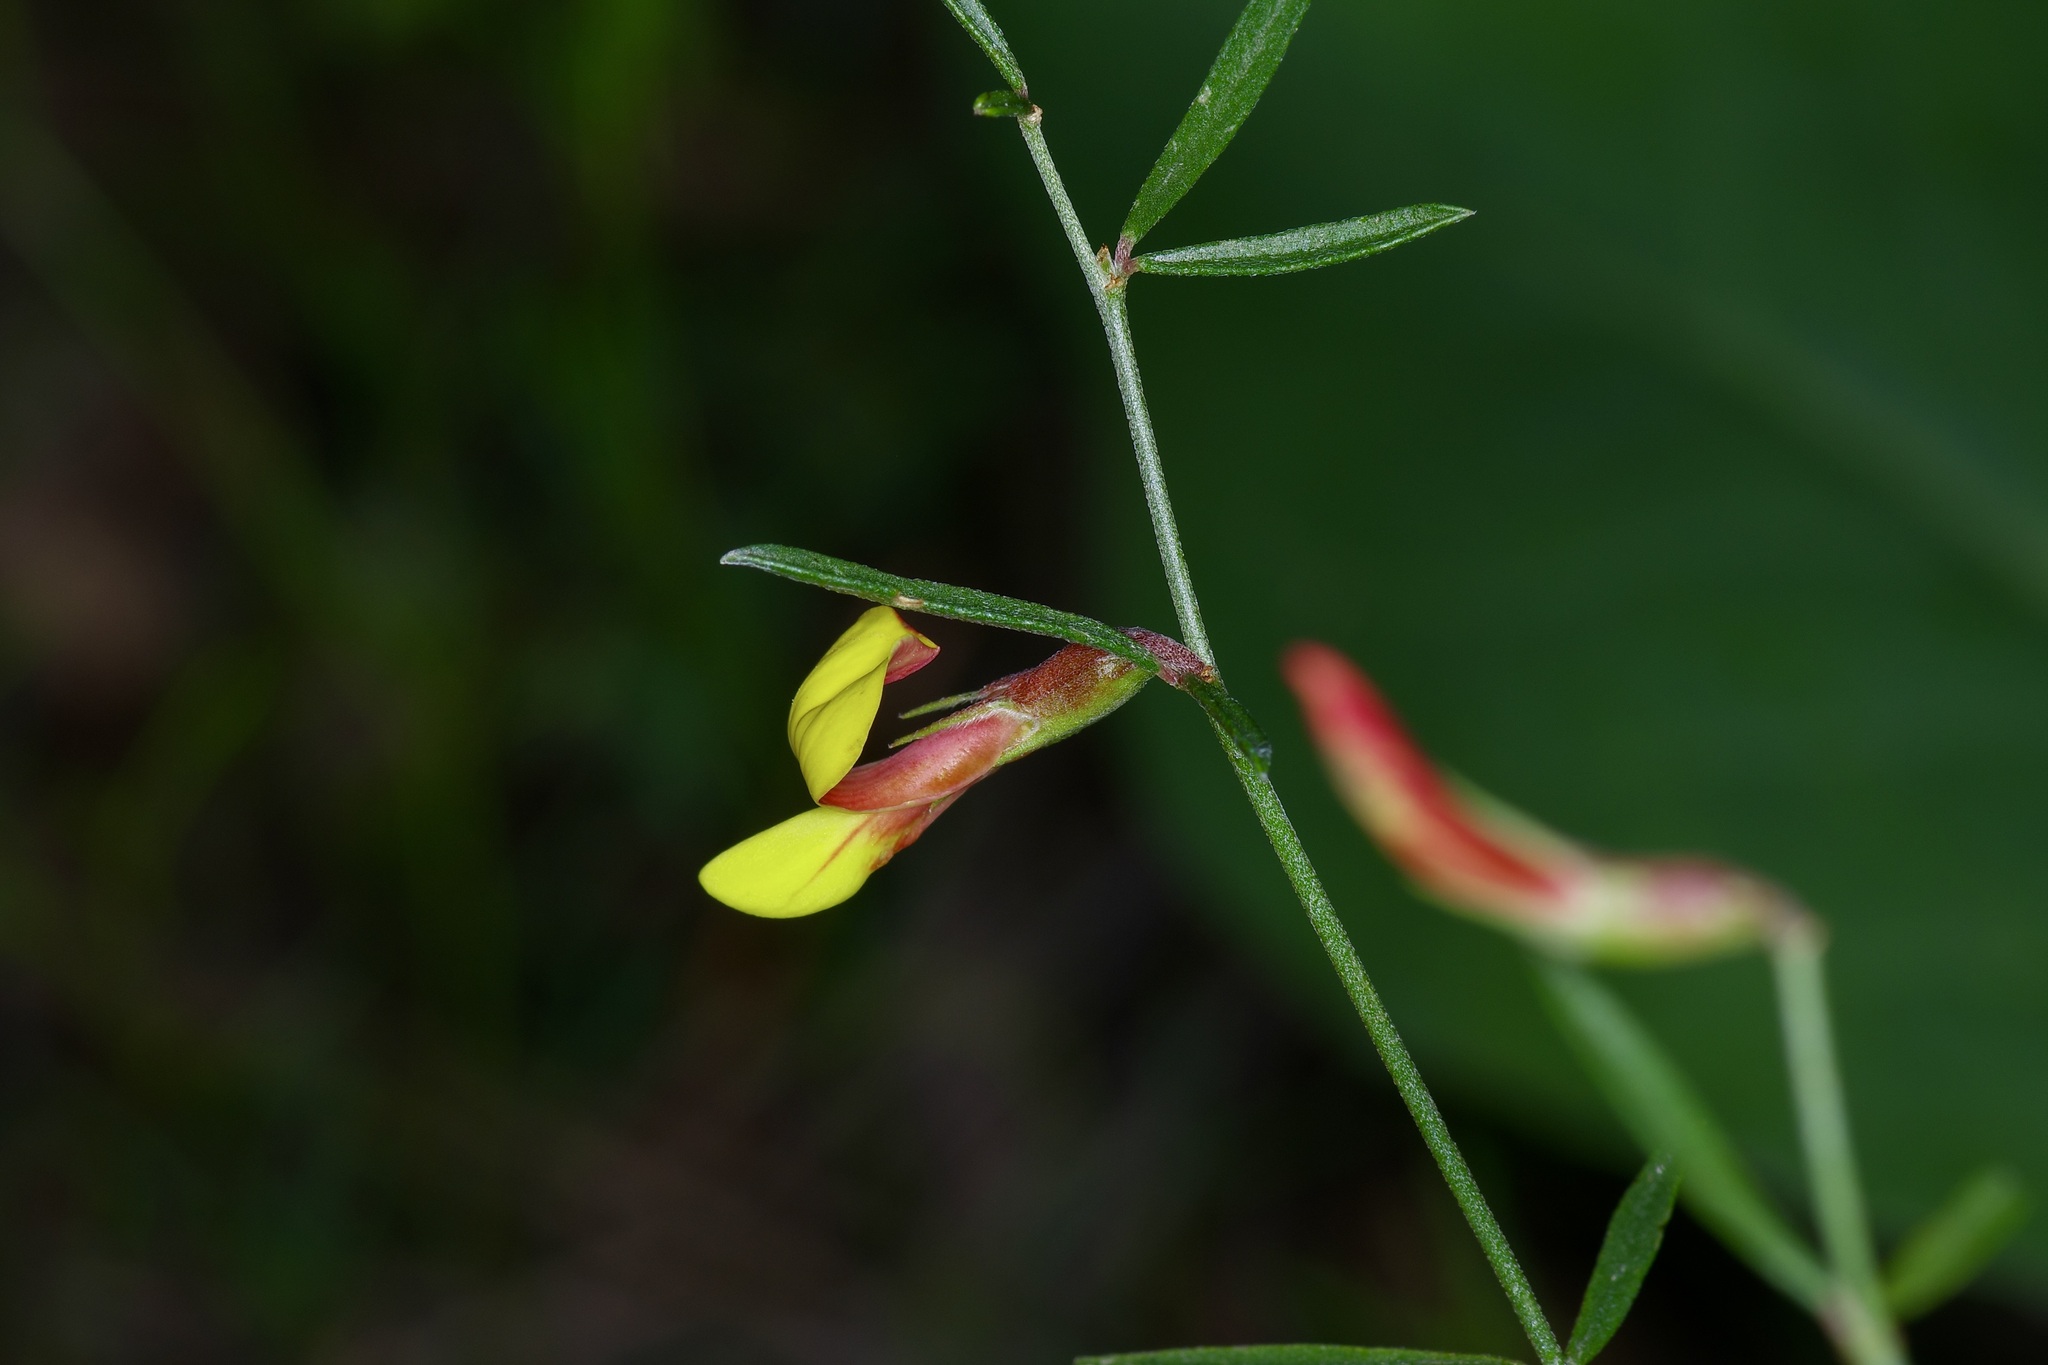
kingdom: Plantae
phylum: Tracheophyta
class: Magnoliopsida
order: Fabales
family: Fabaceae
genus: Acmispon
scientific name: Acmispon wrightii
